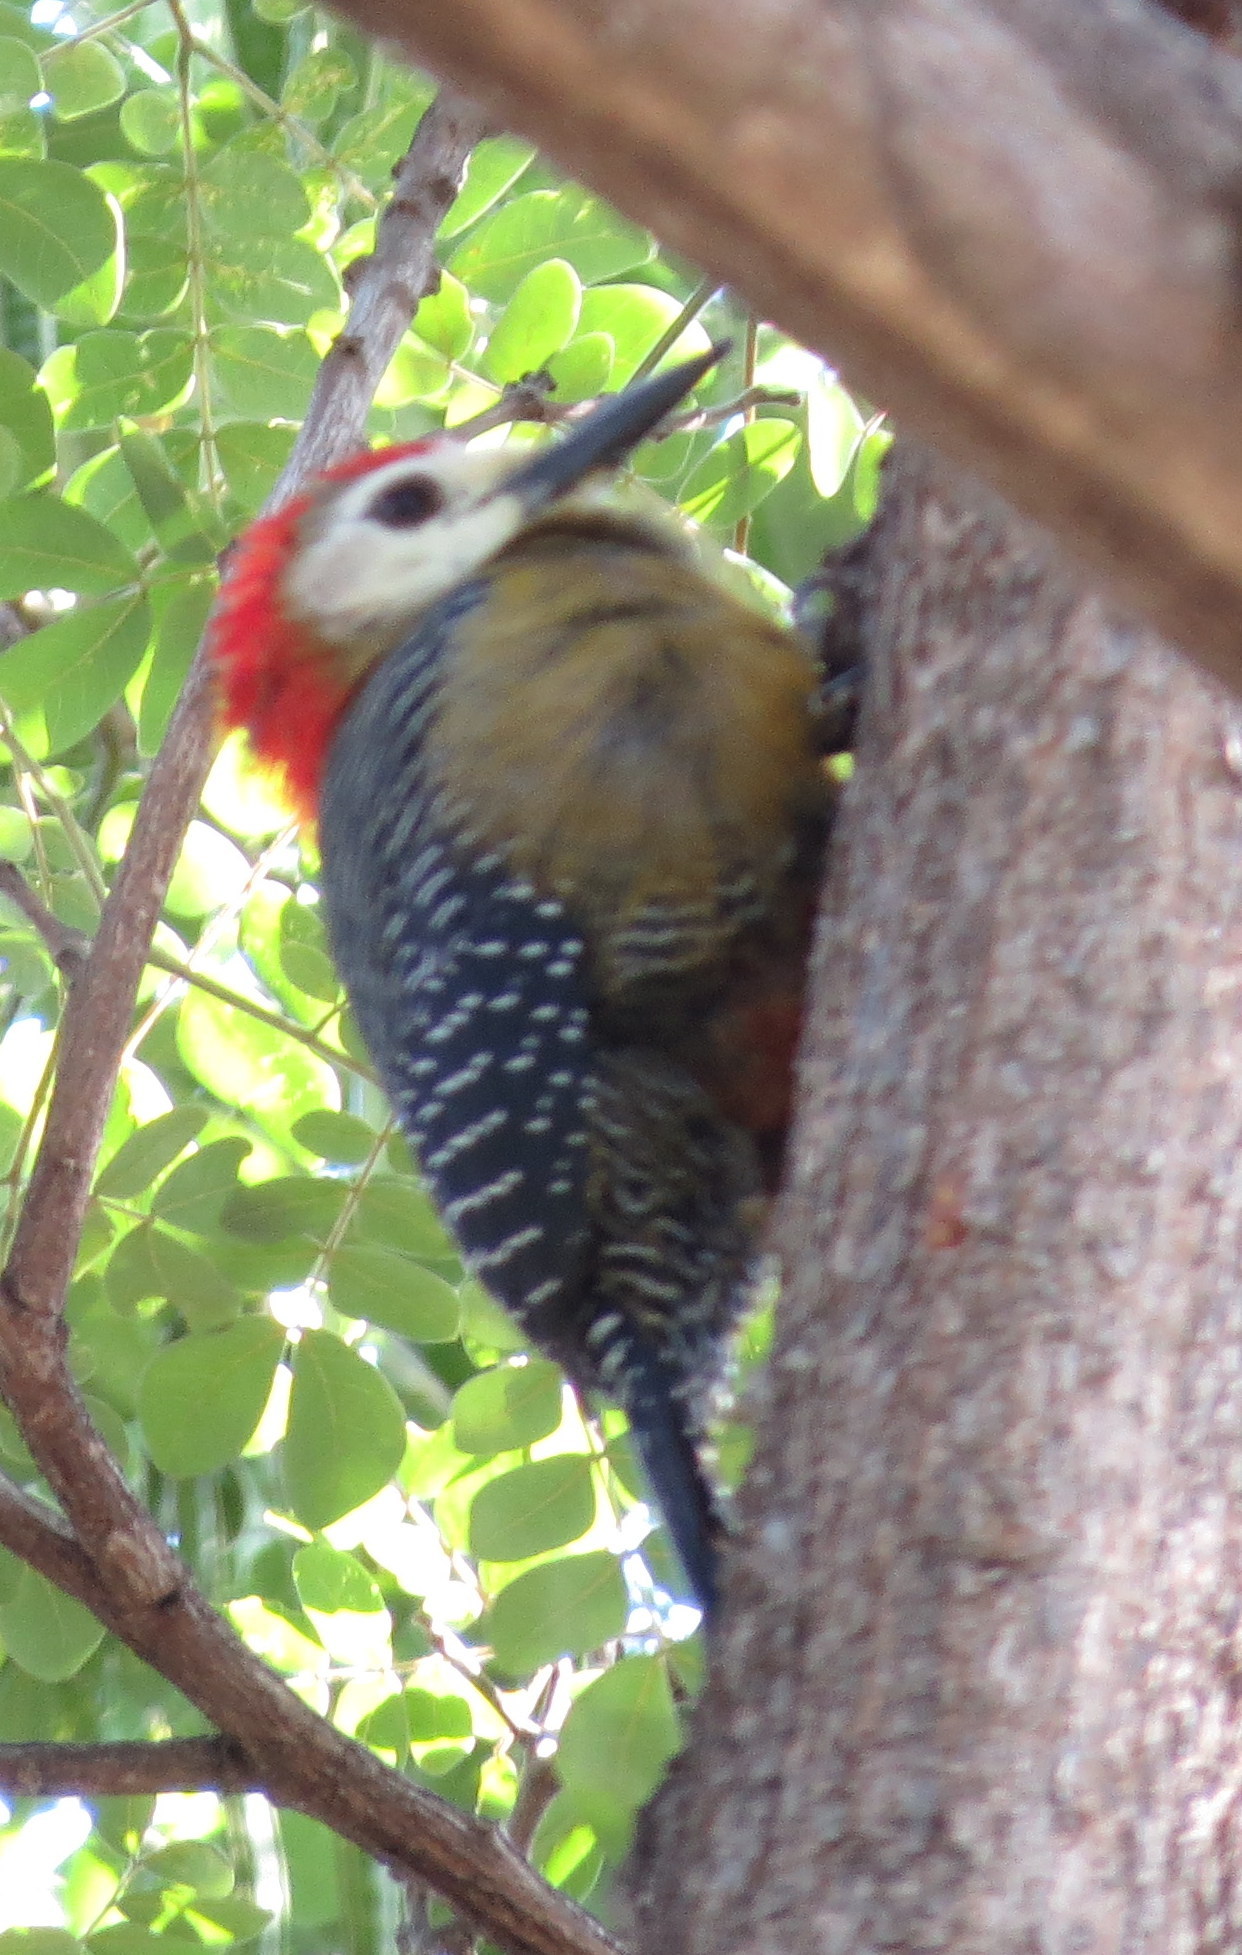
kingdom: Animalia
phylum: Chordata
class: Aves
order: Piciformes
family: Picidae
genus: Melanerpes
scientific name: Melanerpes radiolatus
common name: Jamaican woodpecker
